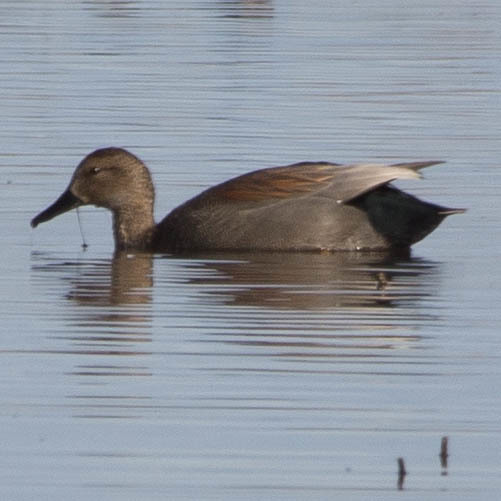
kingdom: Animalia
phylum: Chordata
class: Aves
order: Anseriformes
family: Anatidae
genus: Mareca
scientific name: Mareca strepera
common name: Gadwall
